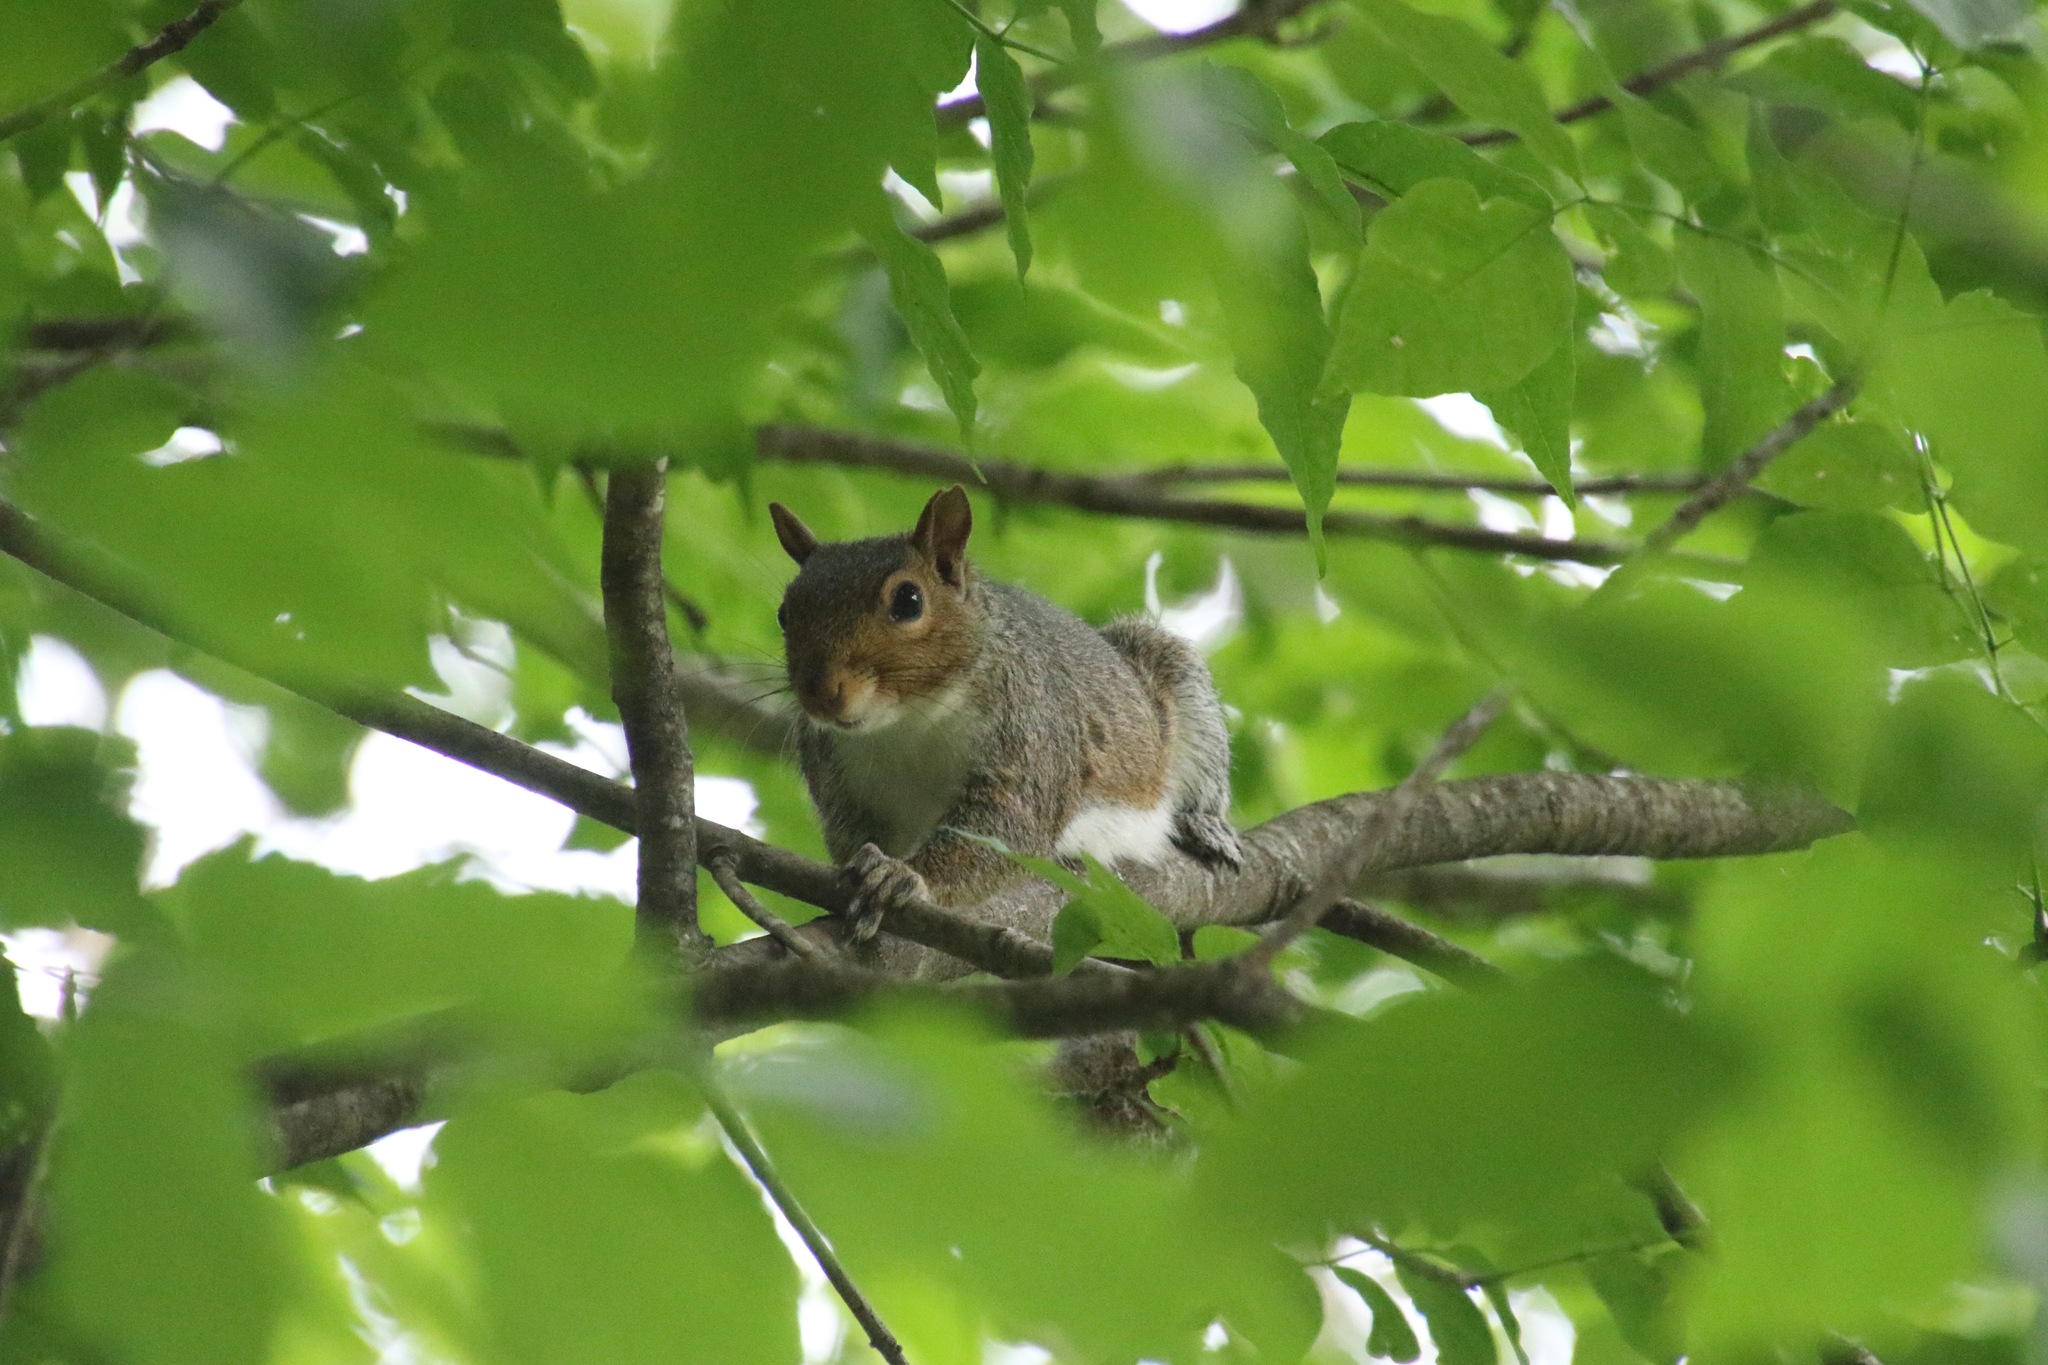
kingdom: Animalia
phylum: Chordata
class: Mammalia
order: Rodentia
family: Sciuridae
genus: Sciurus
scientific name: Sciurus carolinensis
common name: Eastern gray squirrel
